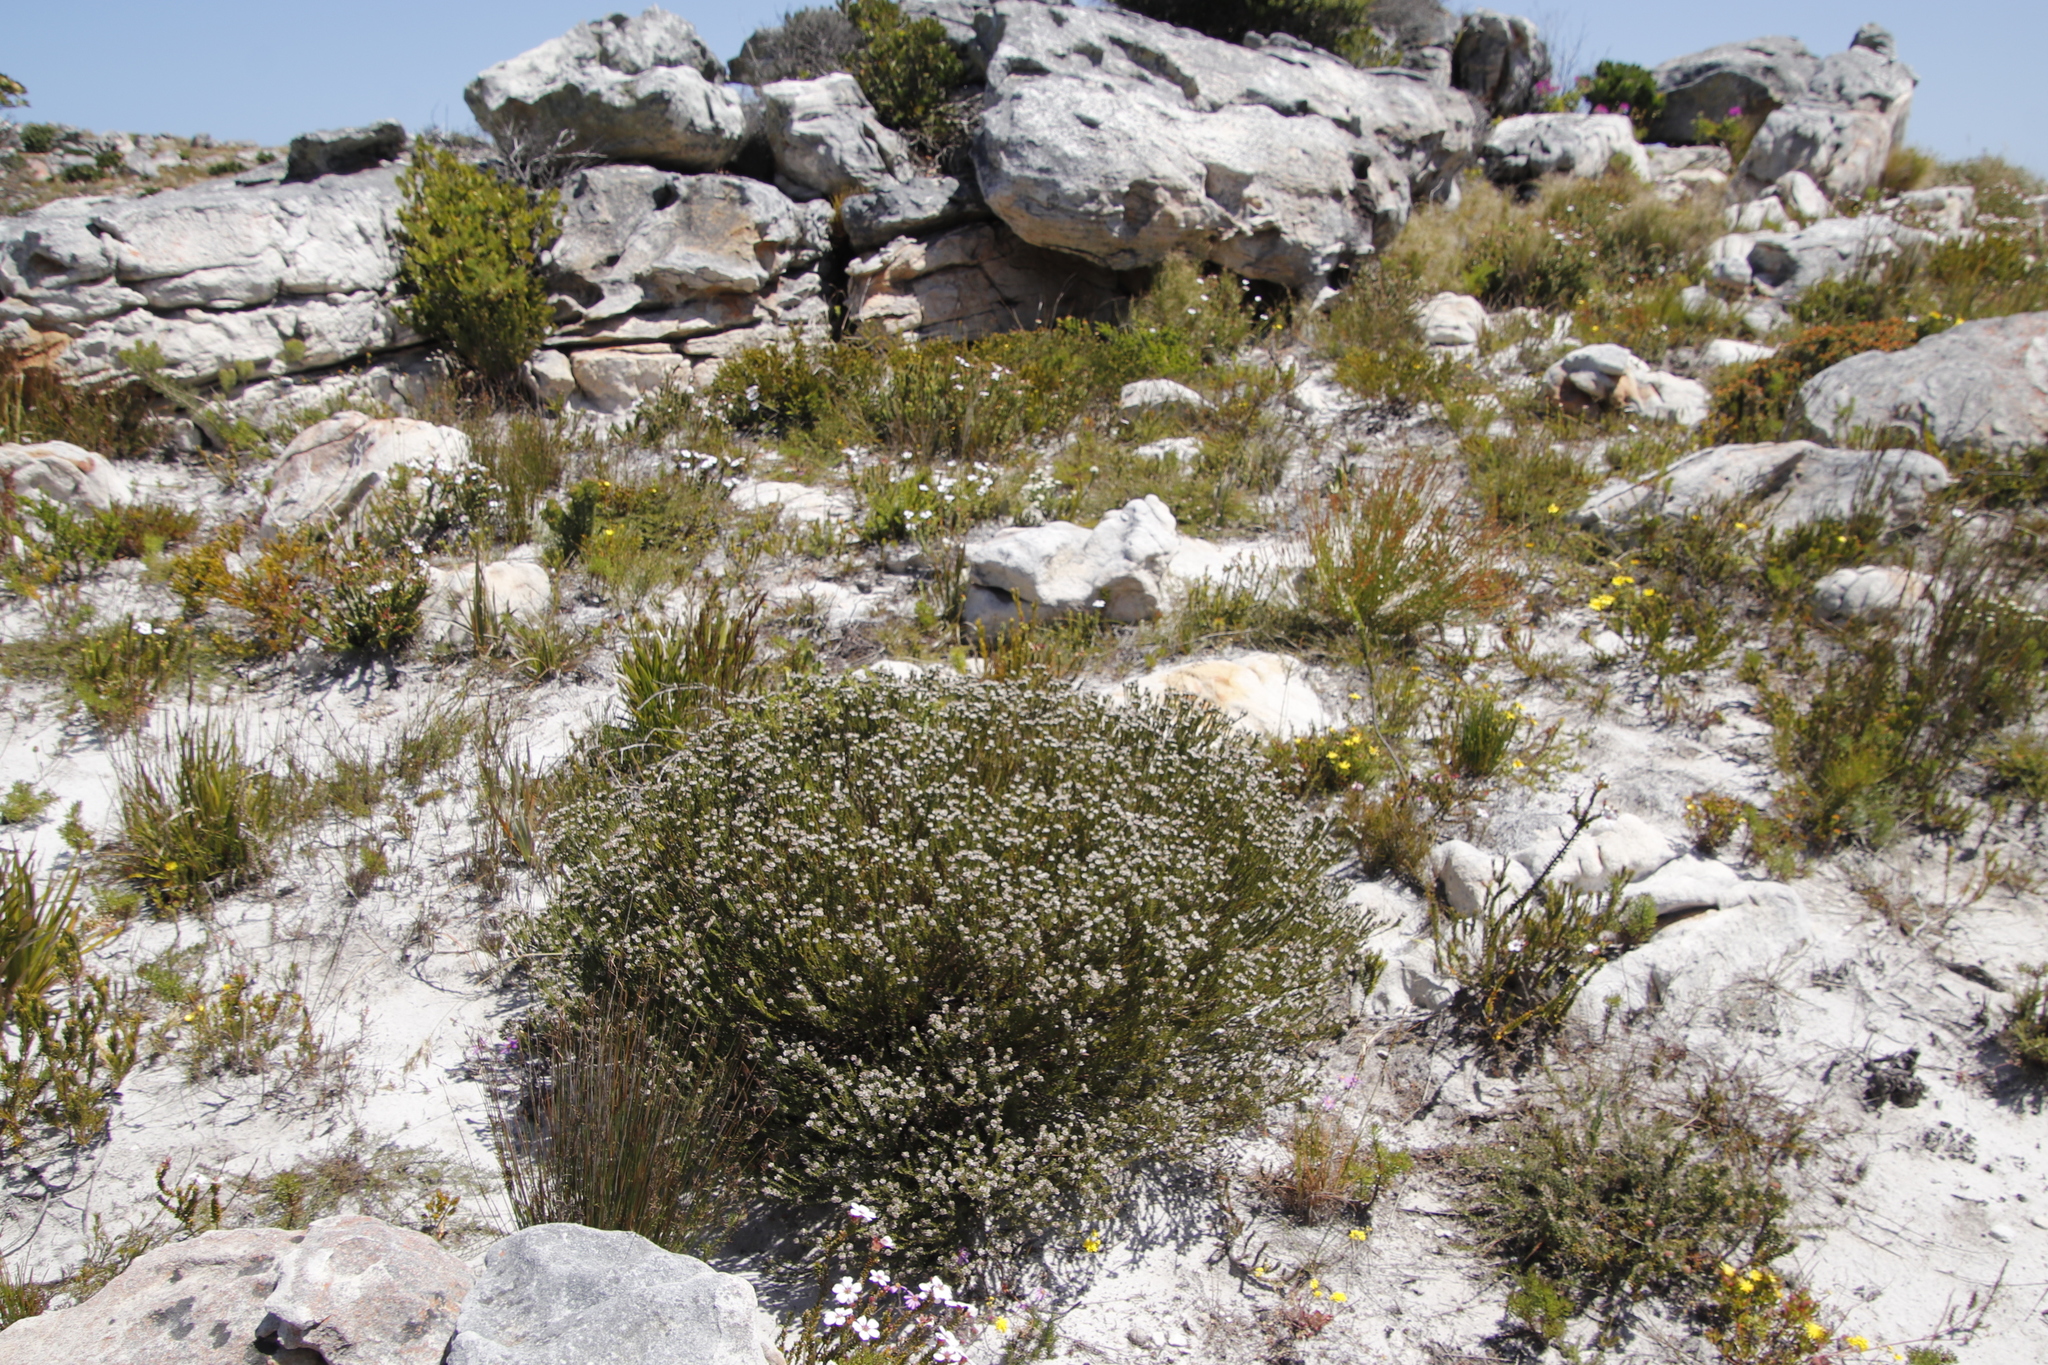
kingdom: Plantae
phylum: Tracheophyta
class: Magnoliopsida
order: Bruniales
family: Bruniaceae
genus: Staavia
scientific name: Staavia radiata
